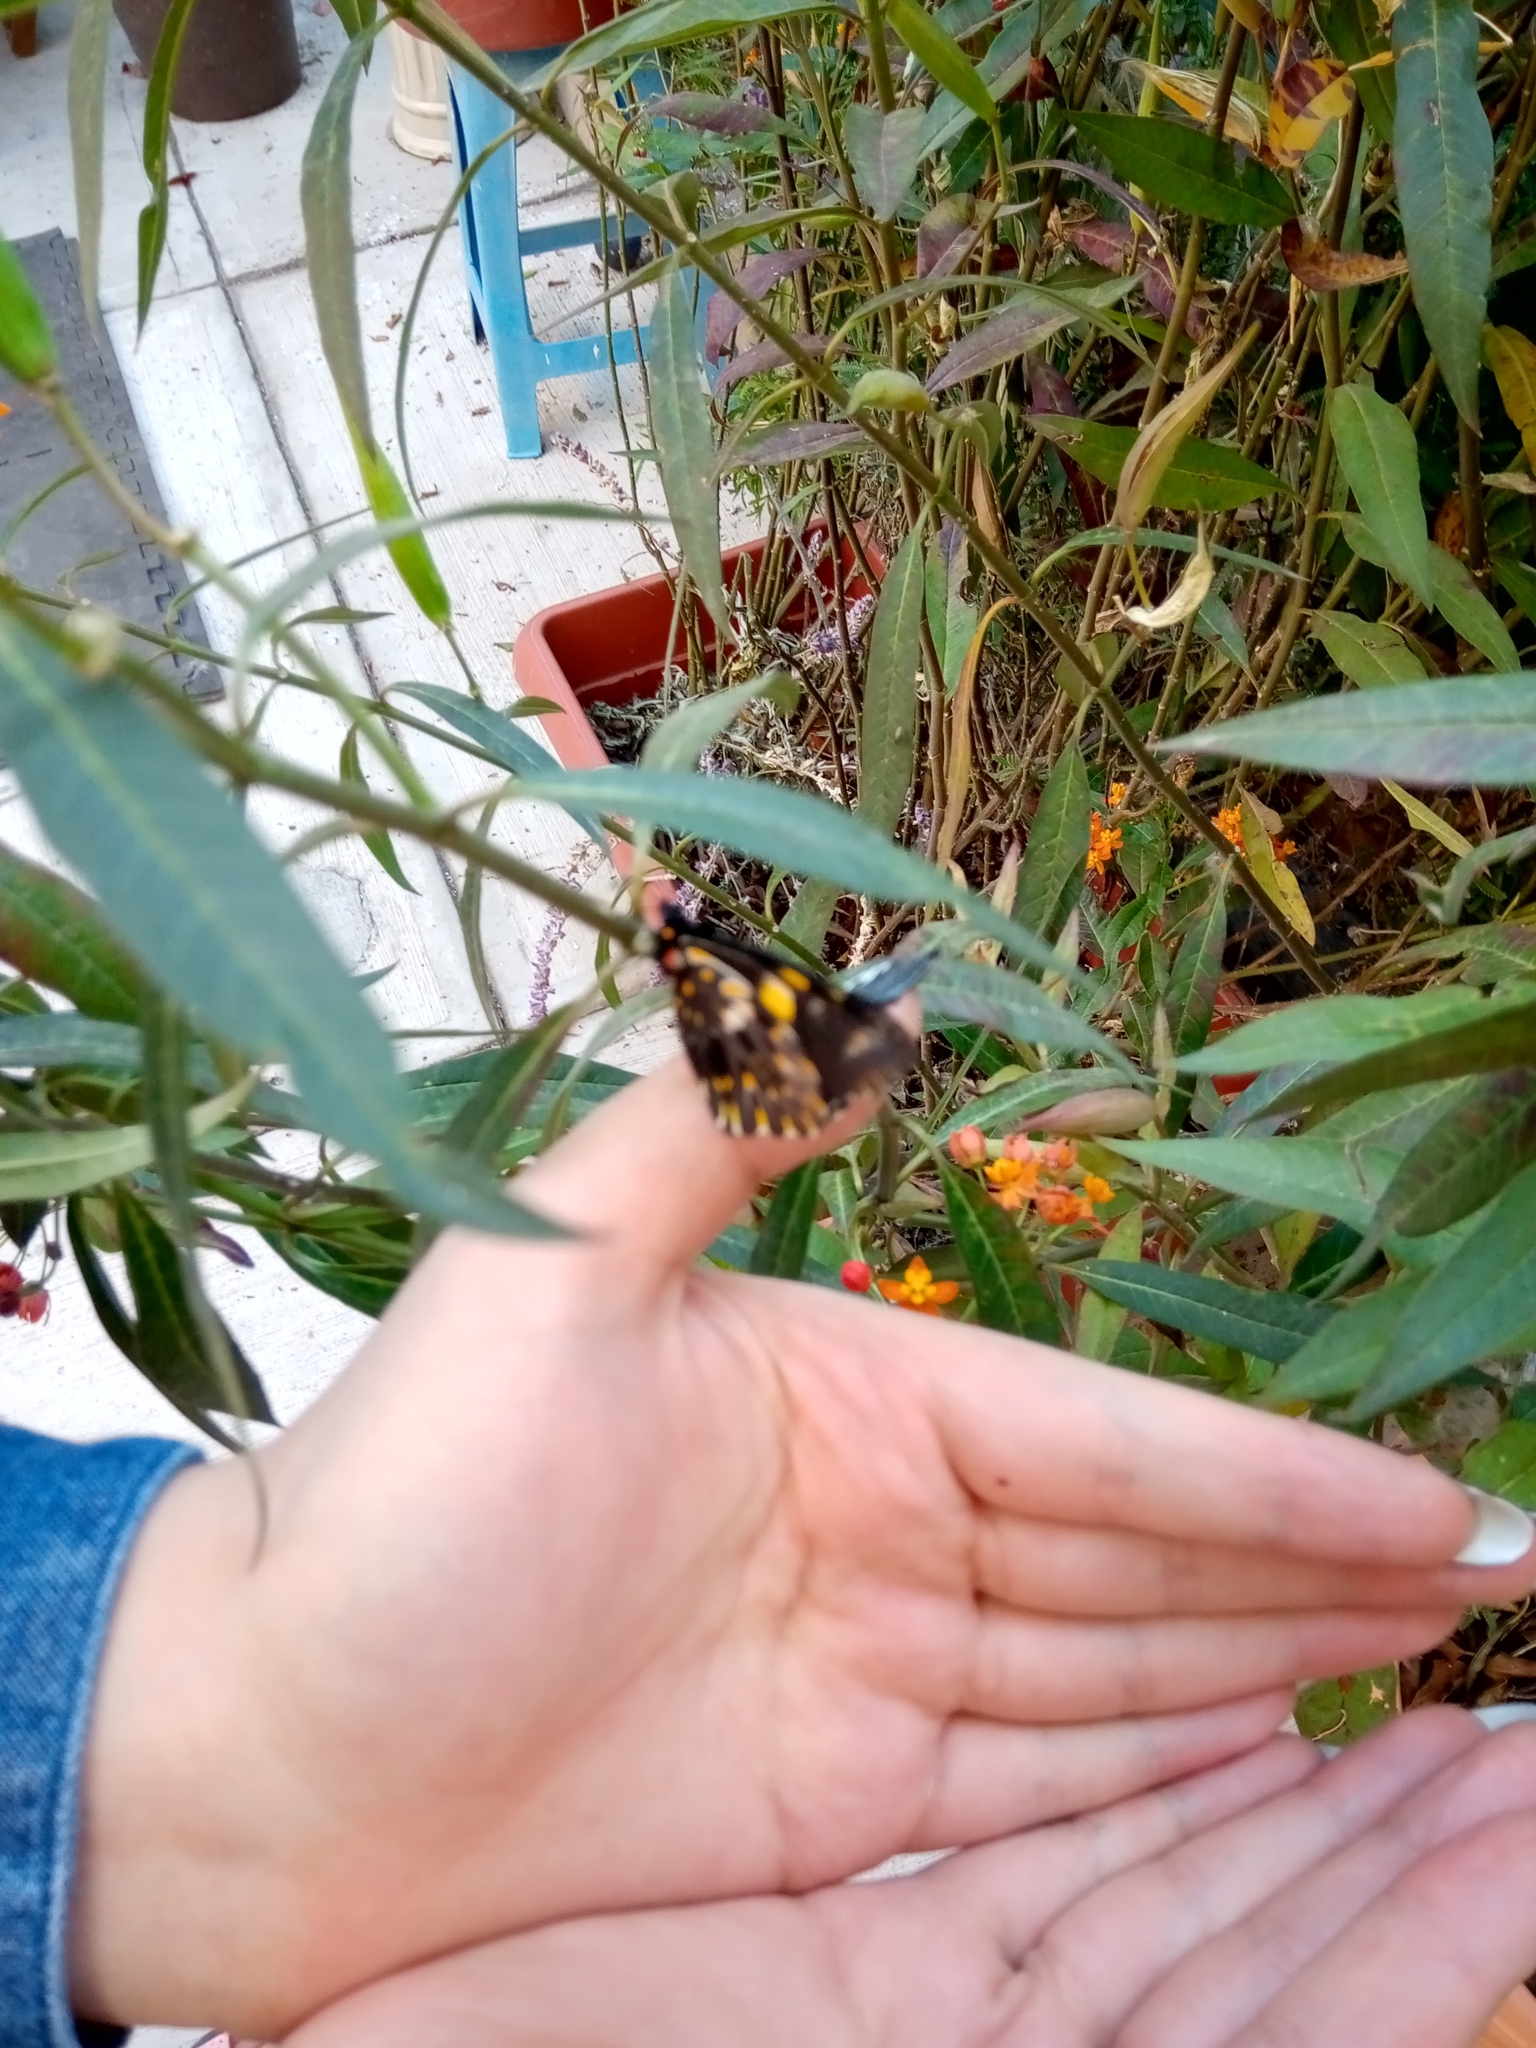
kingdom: Animalia
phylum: Arthropoda
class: Insecta
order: Lepidoptera
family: Pieridae
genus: Archonias
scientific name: Archonias teutila
